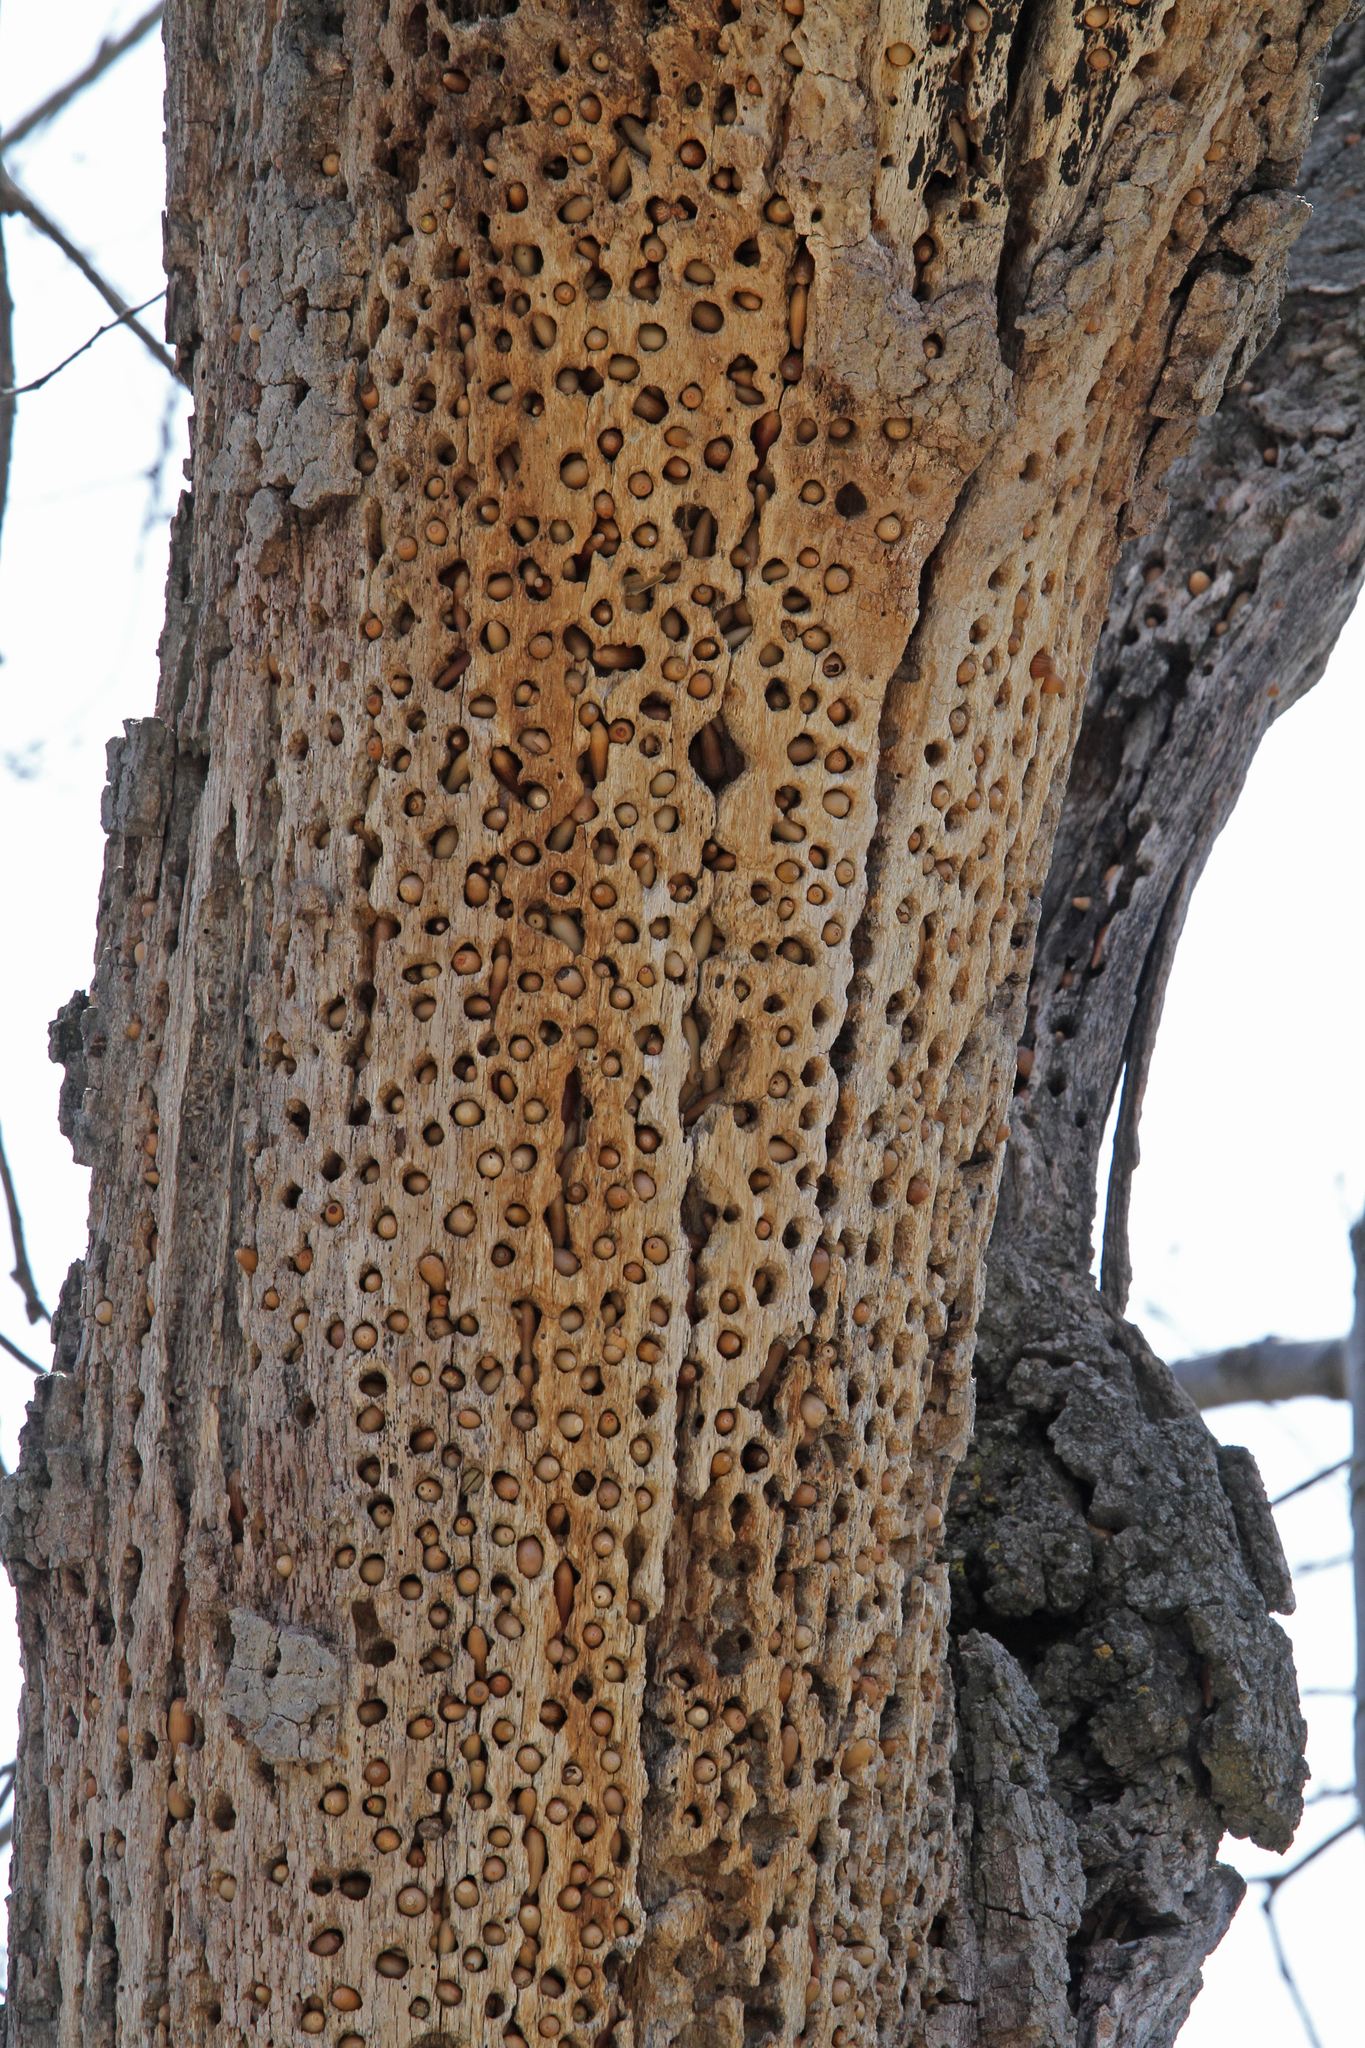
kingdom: Animalia
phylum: Chordata
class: Aves
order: Piciformes
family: Picidae
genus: Melanerpes
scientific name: Melanerpes formicivorus
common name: Acorn woodpecker
